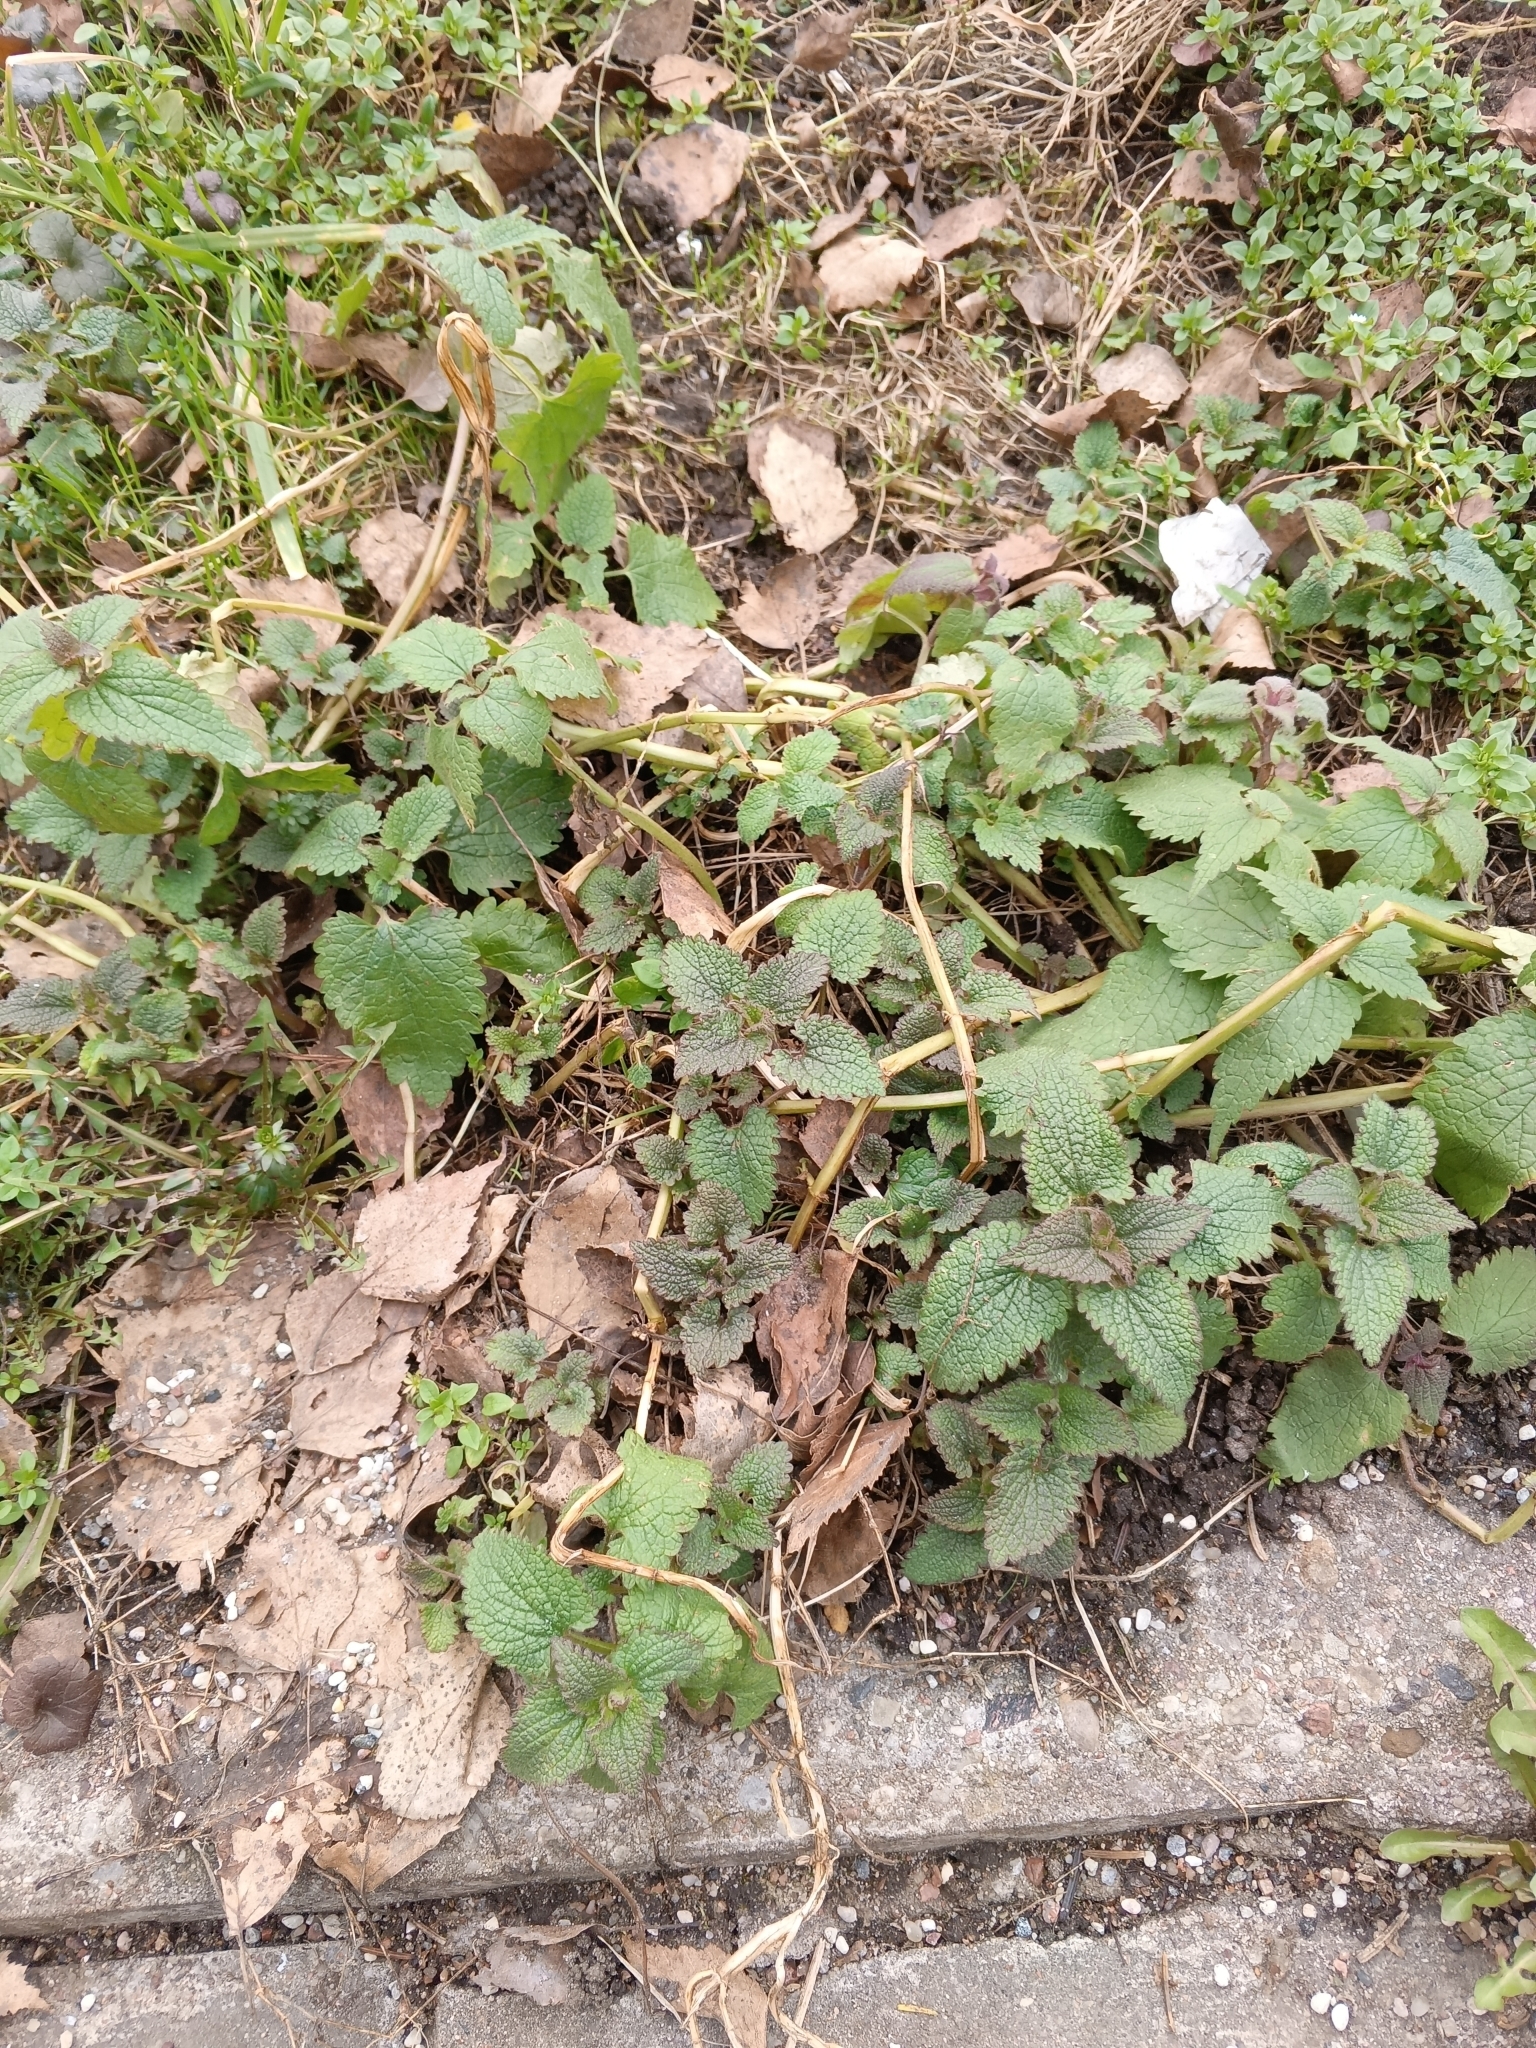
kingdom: Plantae
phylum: Tracheophyta
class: Magnoliopsida
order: Lamiales
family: Lamiaceae
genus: Lamium
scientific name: Lamium album
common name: White dead-nettle
